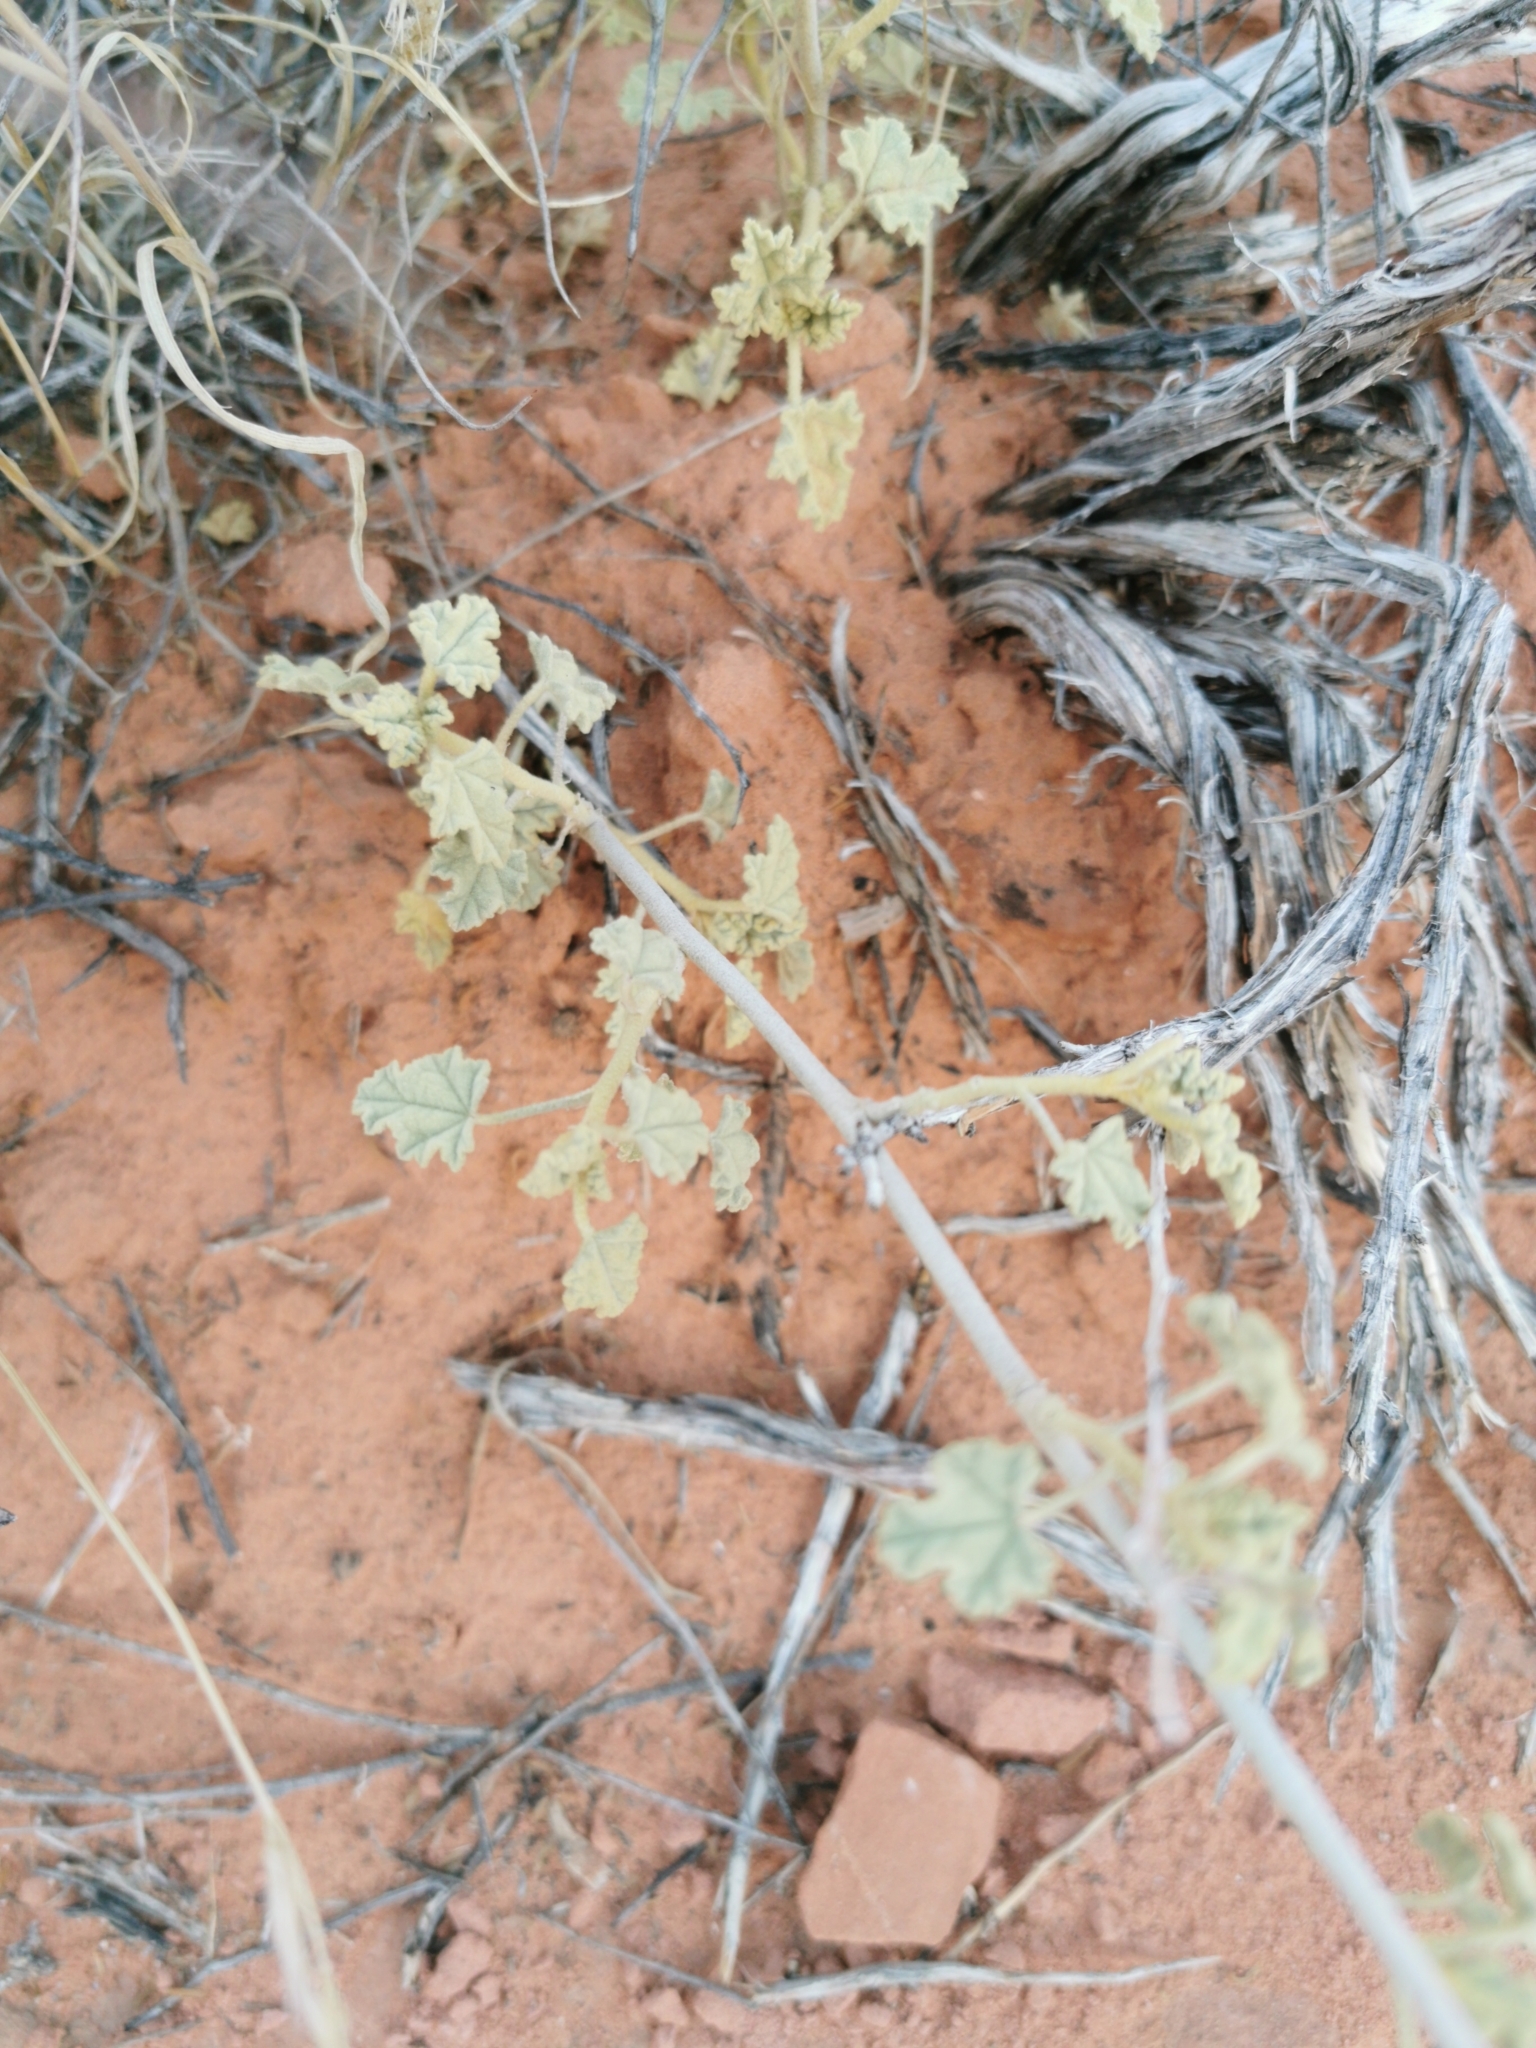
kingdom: Plantae
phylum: Tracheophyta
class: Magnoliopsida
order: Malvales
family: Malvaceae
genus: Sphaeralcea
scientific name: Sphaeralcea ambigua
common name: Apricot globe-mallow
